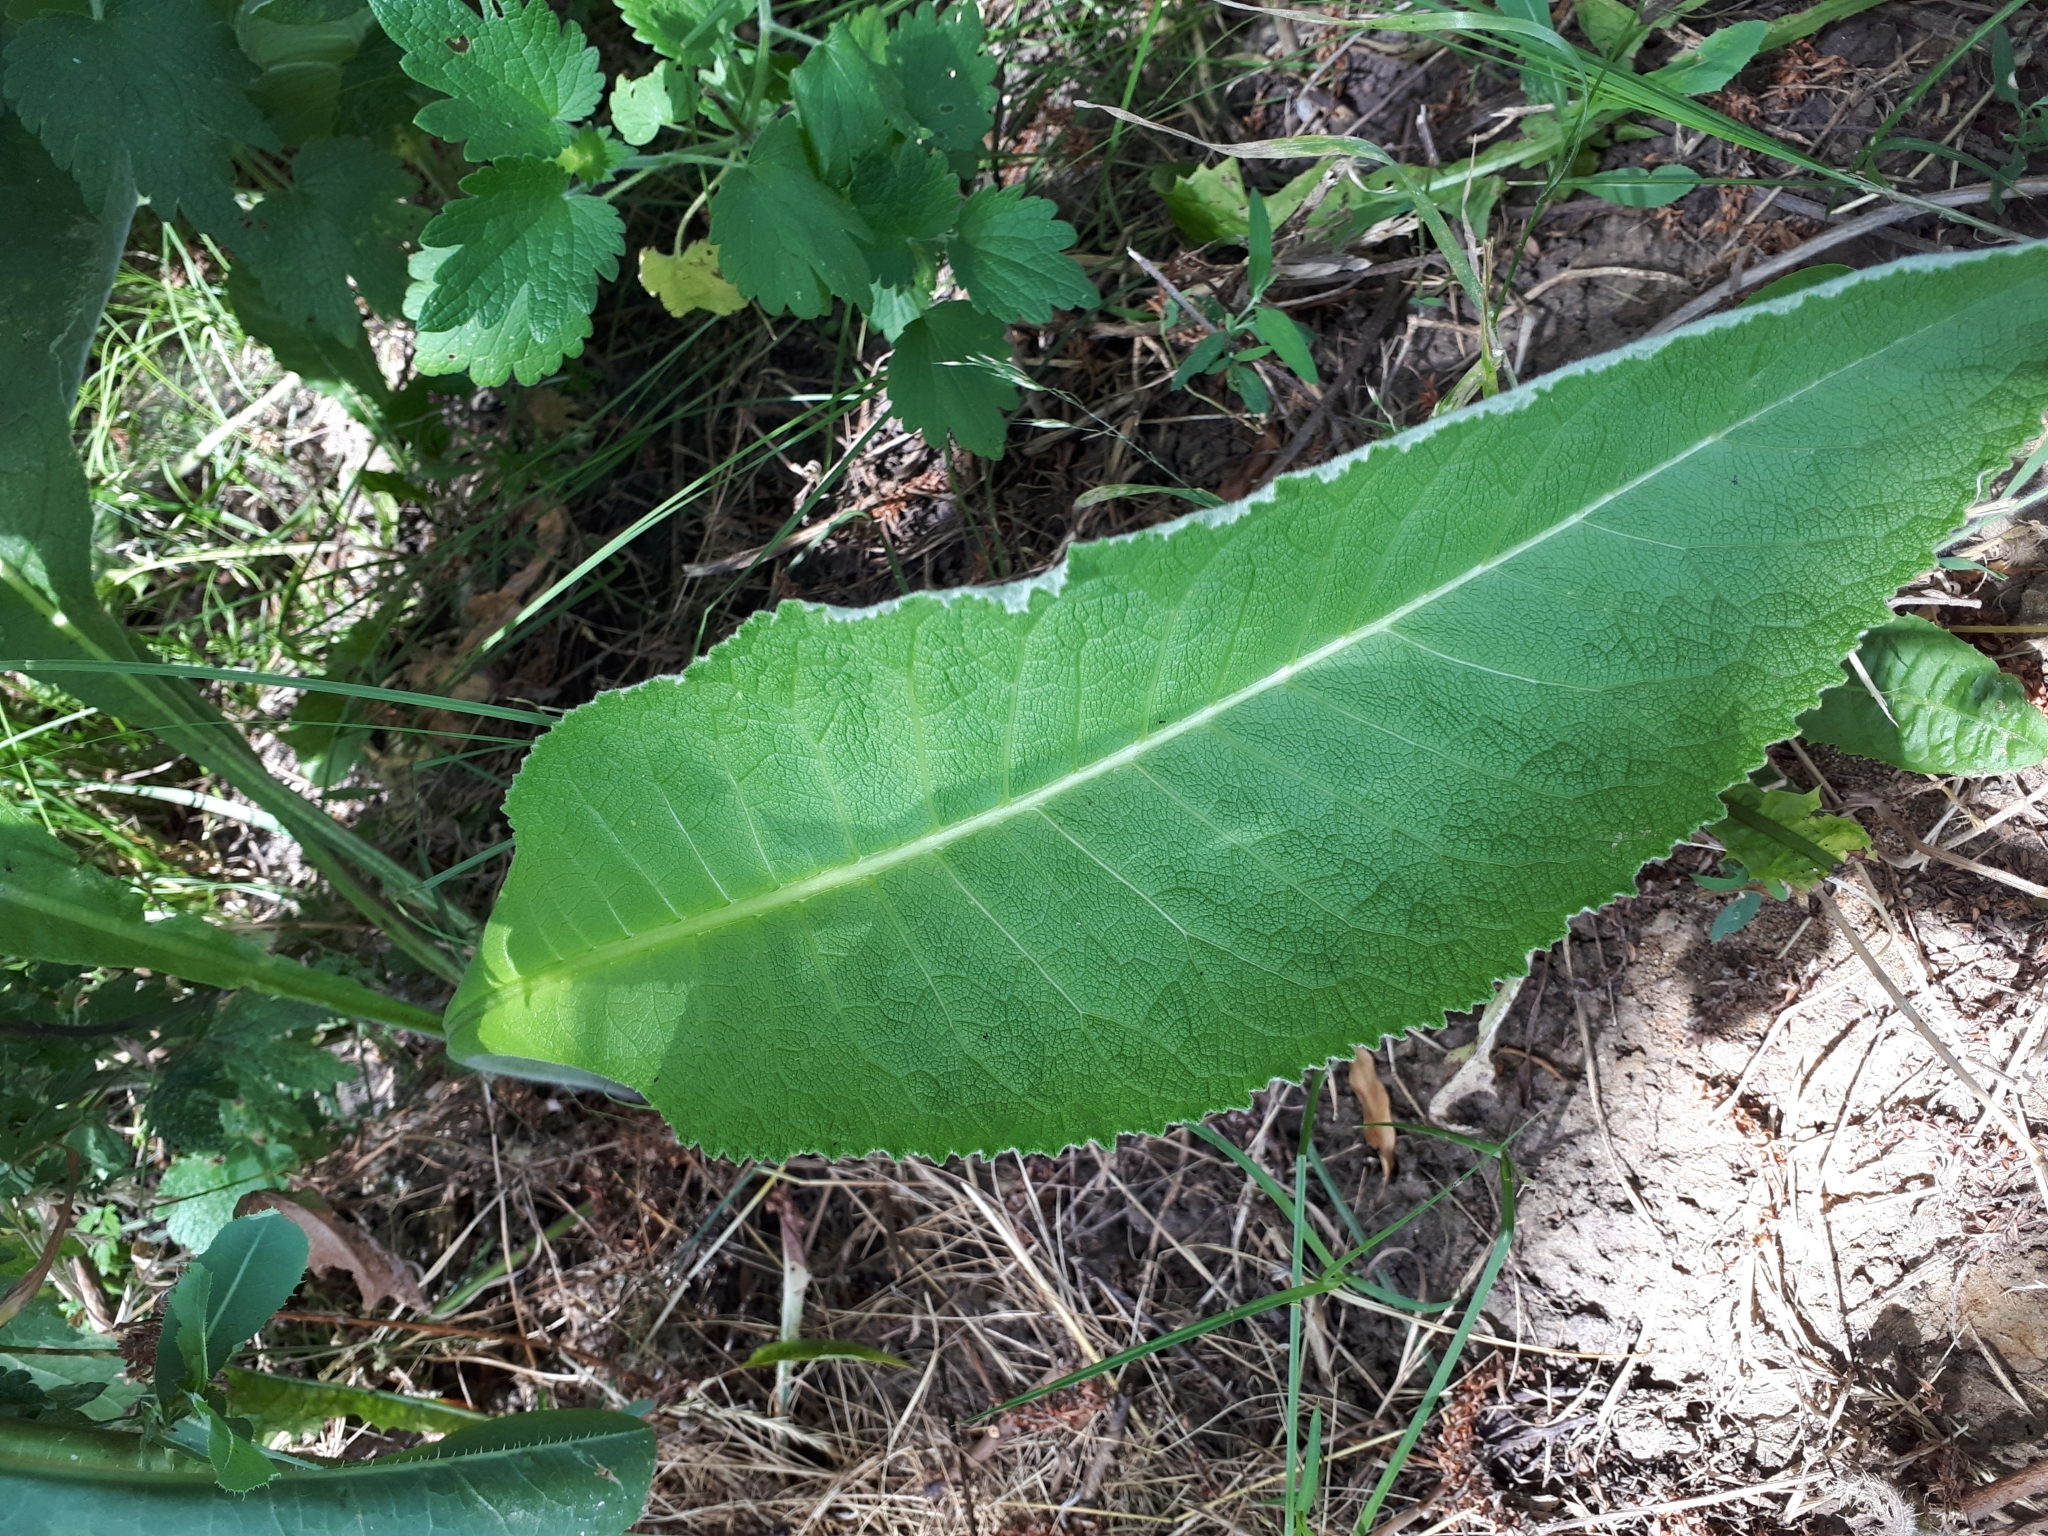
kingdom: Plantae
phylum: Tracheophyta
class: Magnoliopsida
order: Asterales
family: Asteraceae
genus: Inula
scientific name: Inula helenium
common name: Elecampane
